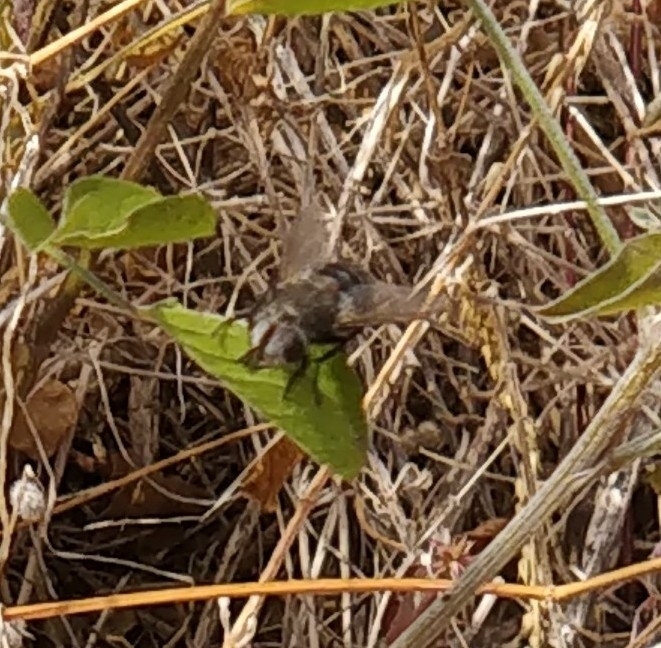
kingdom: Animalia
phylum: Arthropoda
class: Insecta
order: Diptera
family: Tachinidae
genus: Pseudogonia
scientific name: Pseudogonia fasciata
